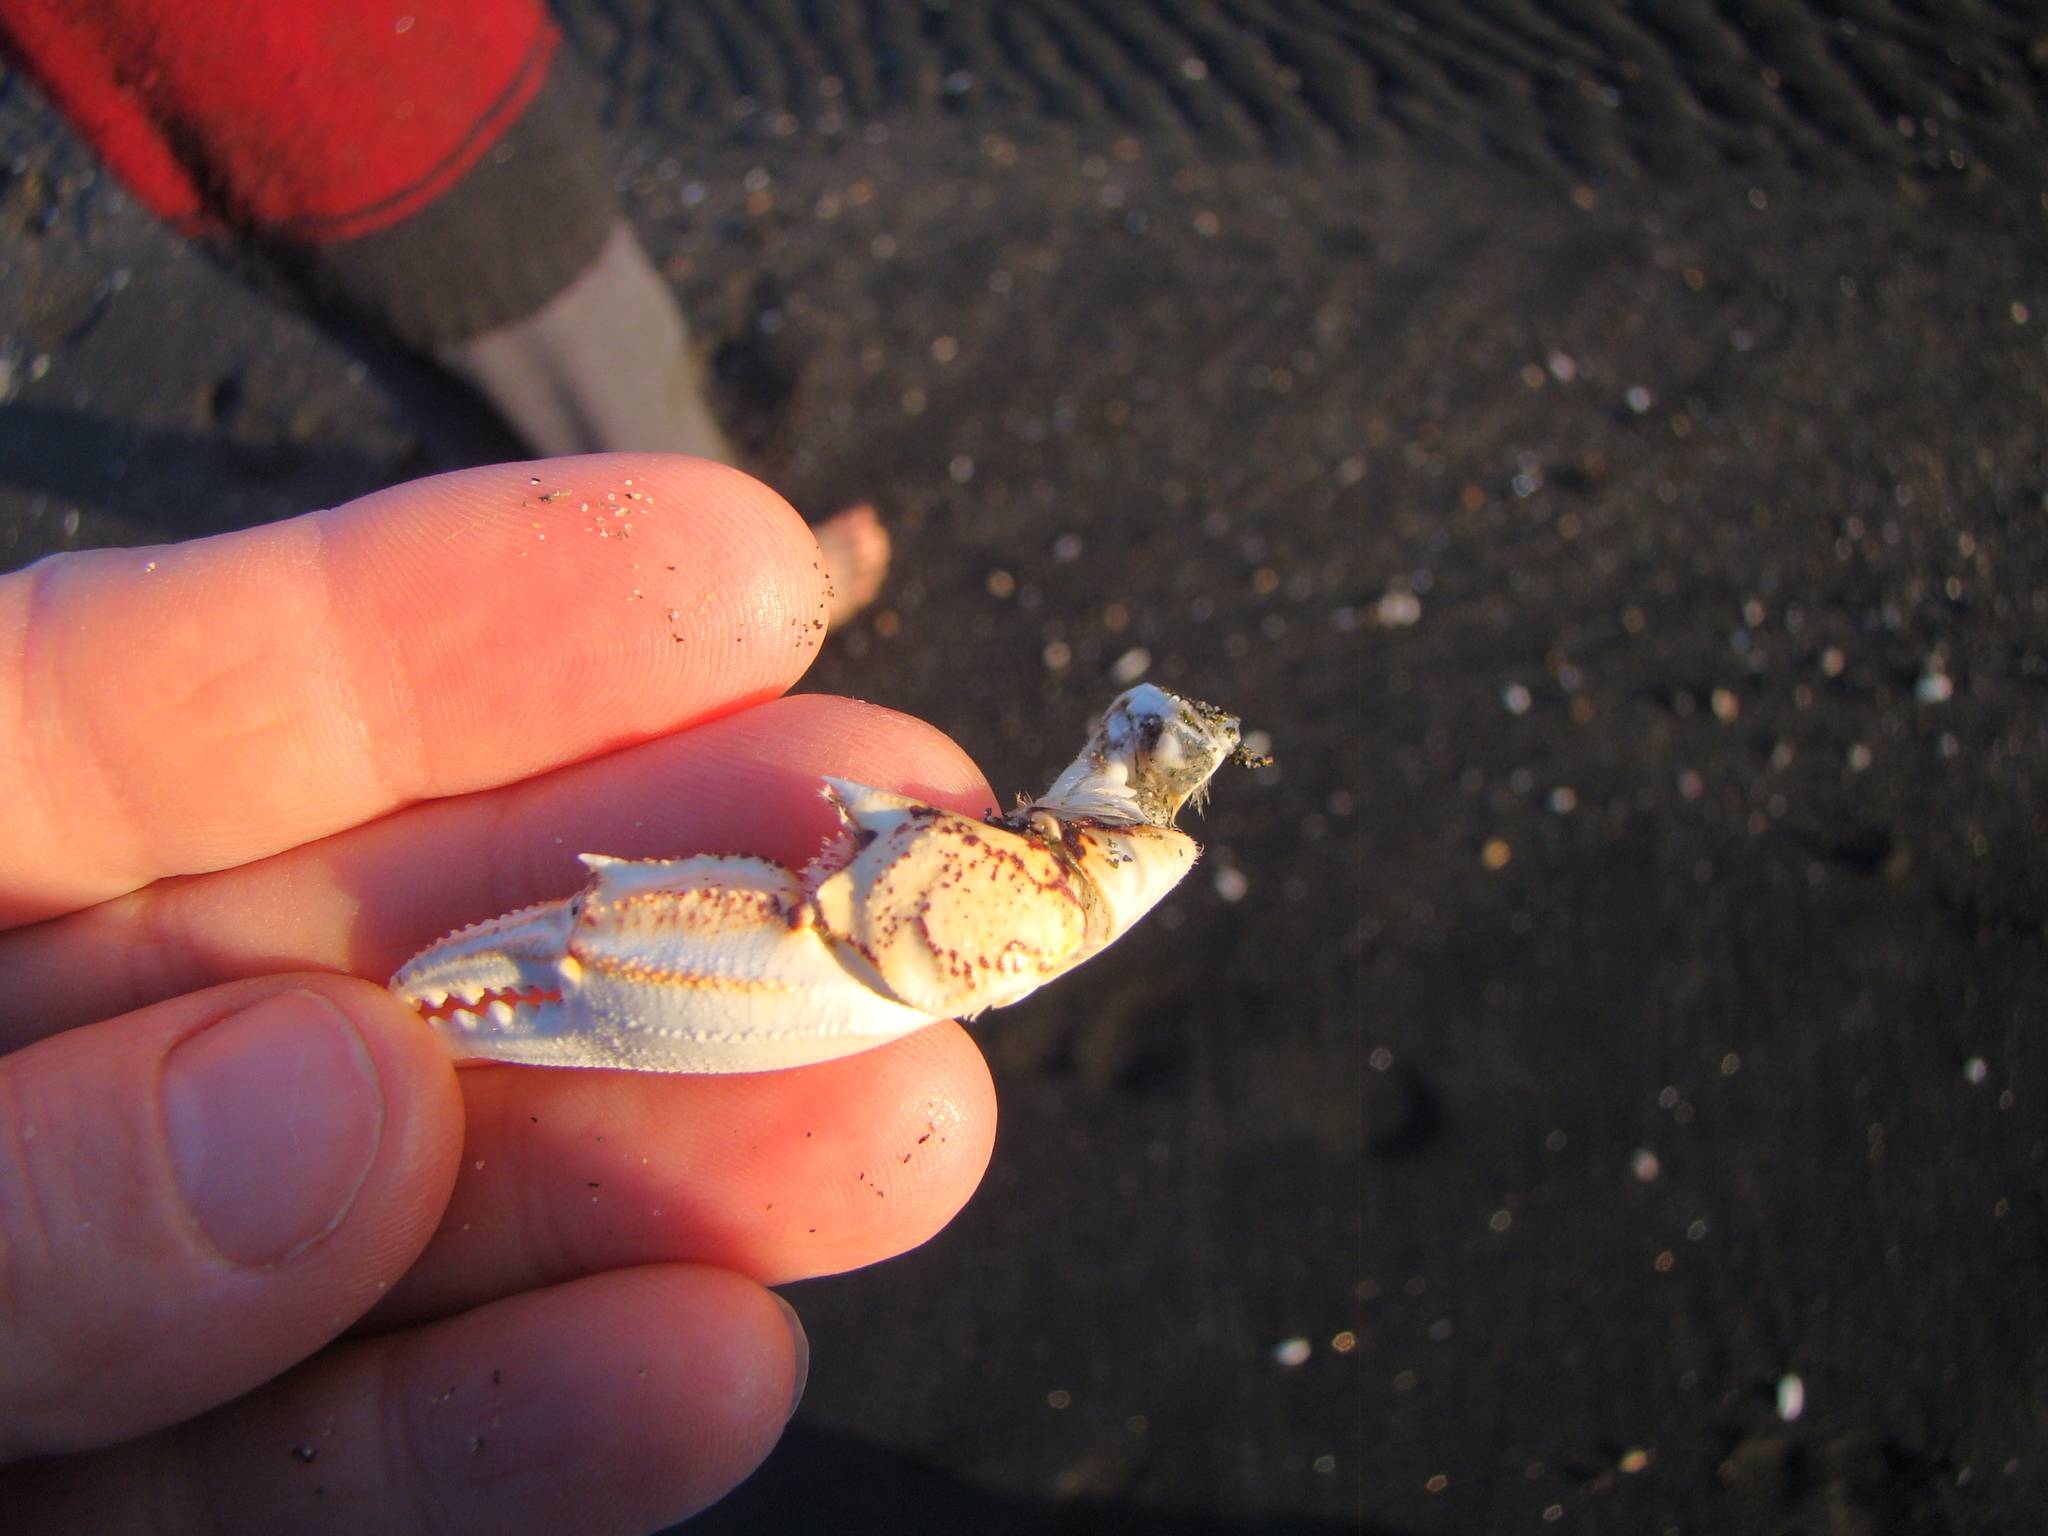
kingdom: Animalia
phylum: Arthropoda
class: Malacostraca
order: Decapoda
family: Ovalipidae
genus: Ovalipes
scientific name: Ovalipes catharus
